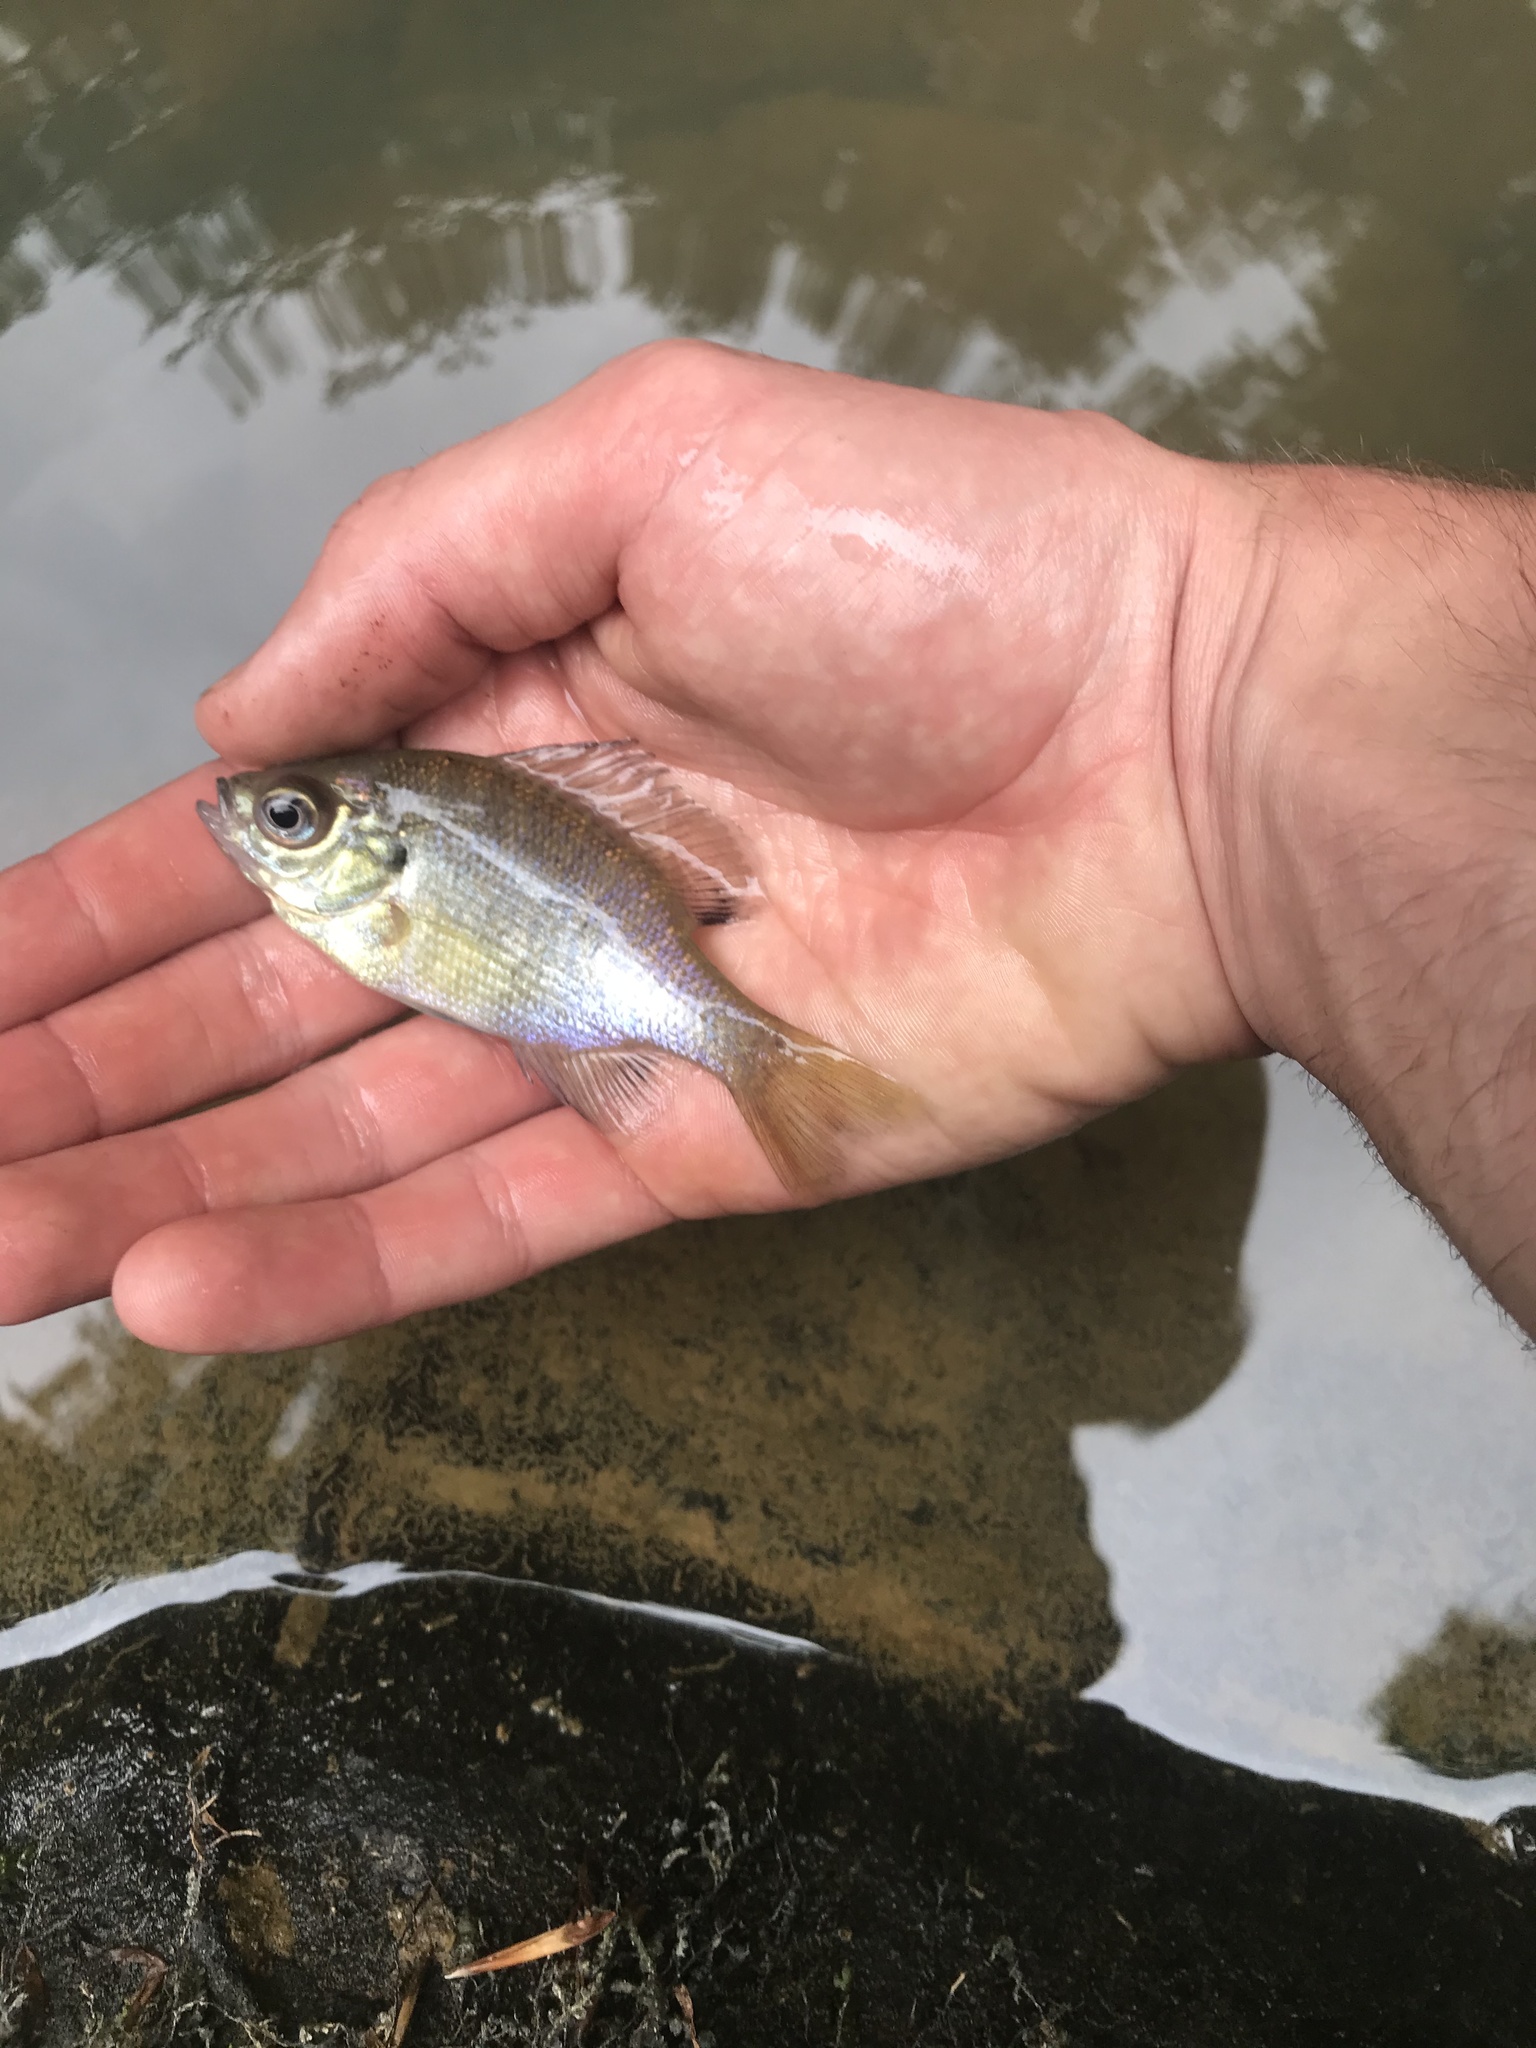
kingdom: Animalia
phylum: Chordata
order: Perciformes
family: Centrarchidae
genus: Lepomis
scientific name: Lepomis macrochirus
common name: Bluegill
